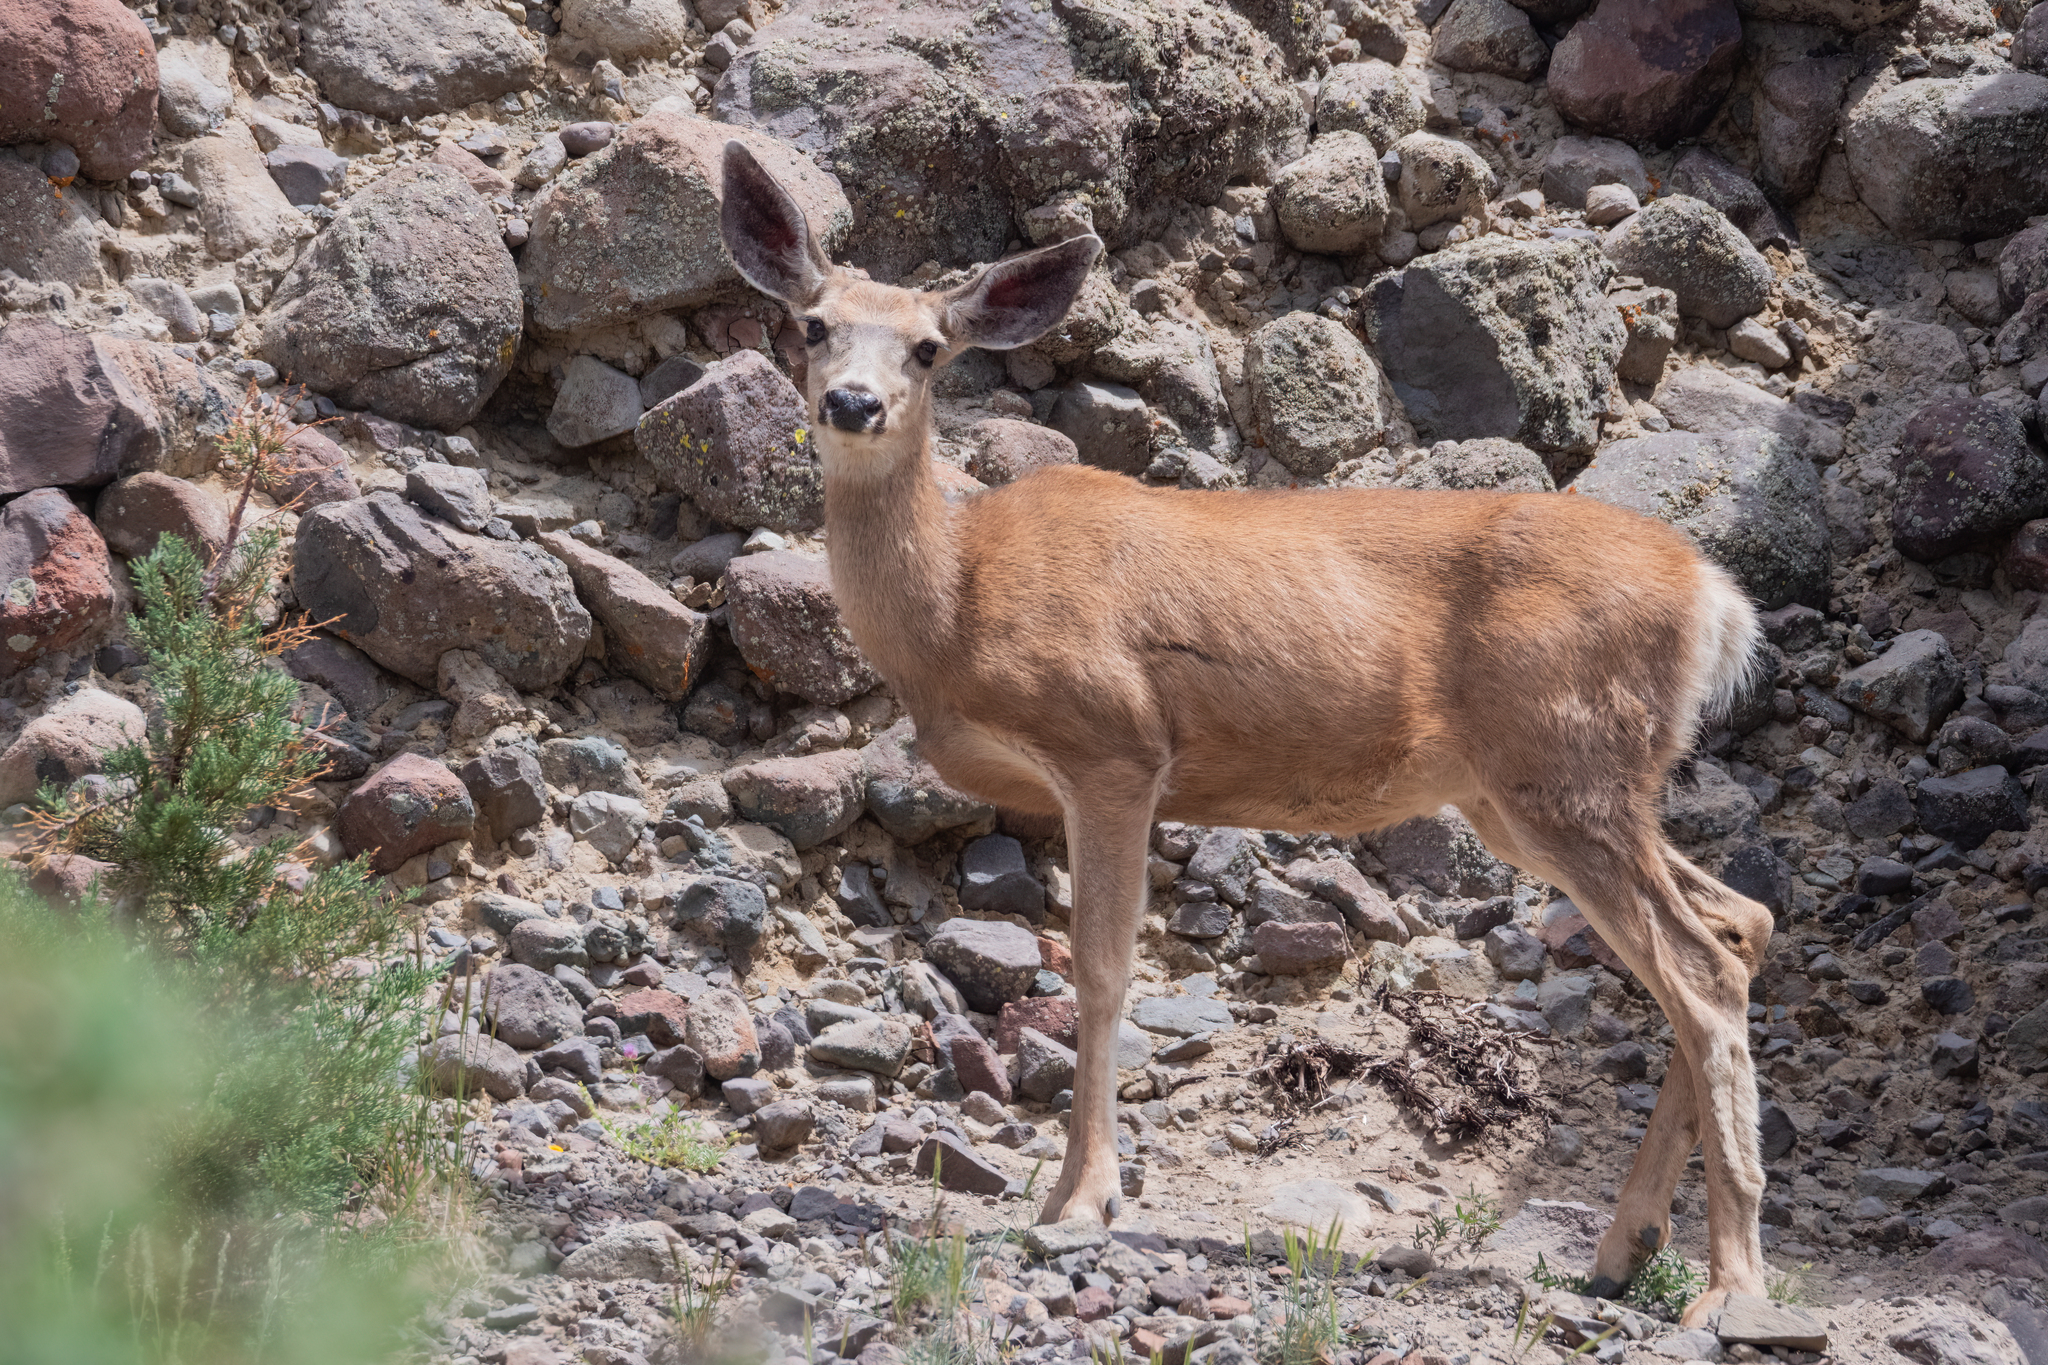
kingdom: Animalia
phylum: Chordata
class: Mammalia
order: Artiodactyla
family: Cervidae
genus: Odocoileus
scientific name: Odocoileus hemionus
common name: Mule deer
